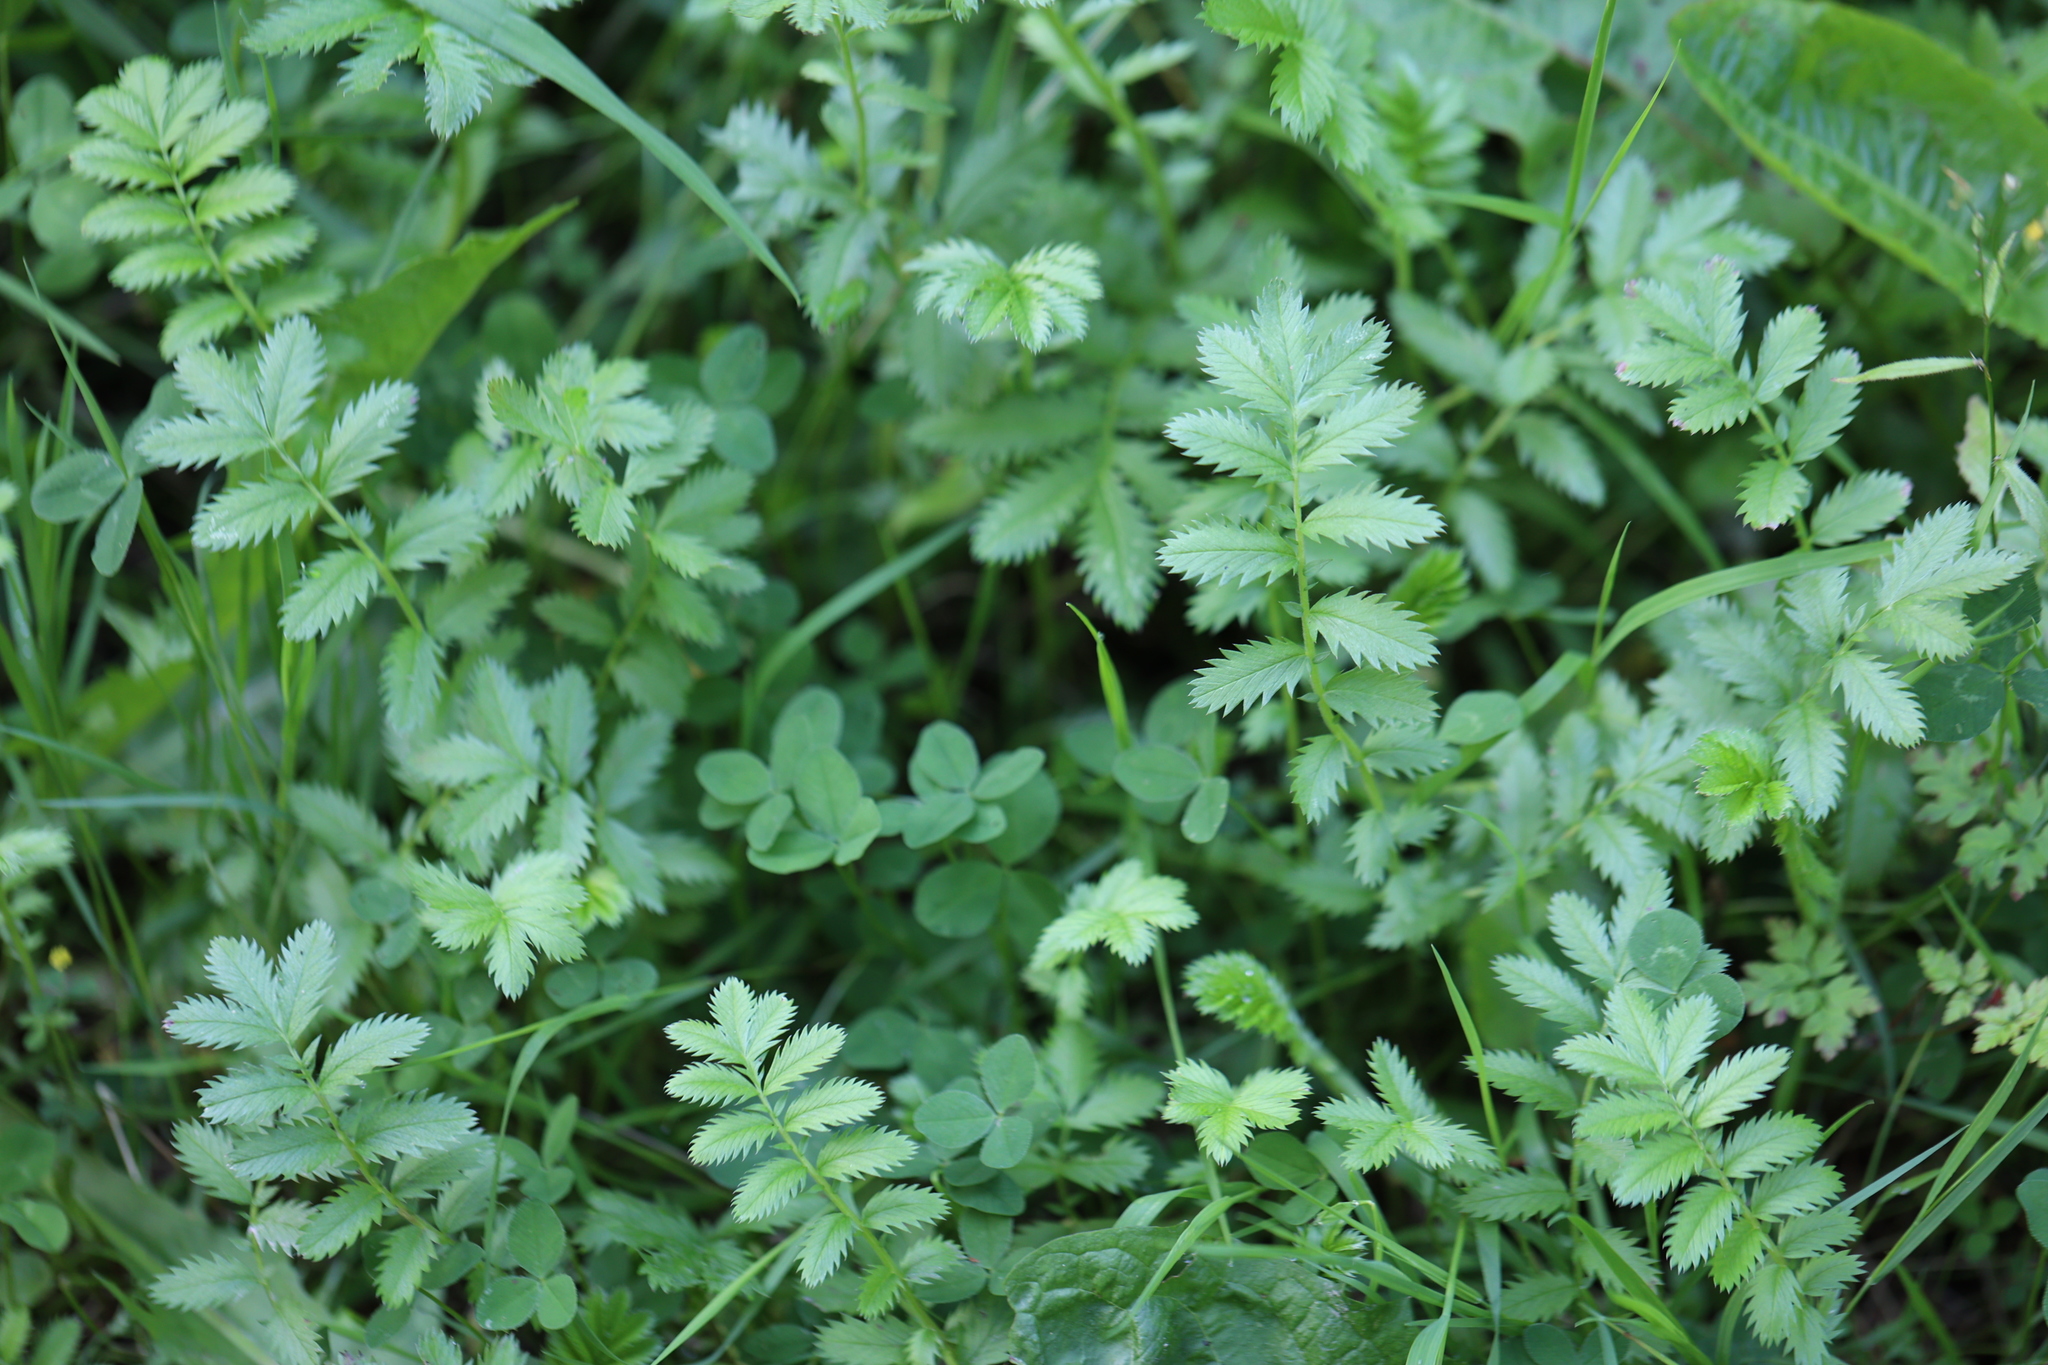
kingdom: Plantae
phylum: Tracheophyta
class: Magnoliopsida
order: Rosales
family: Rosaceae
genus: Argentina
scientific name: Argentina anserina
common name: Common silverweed
